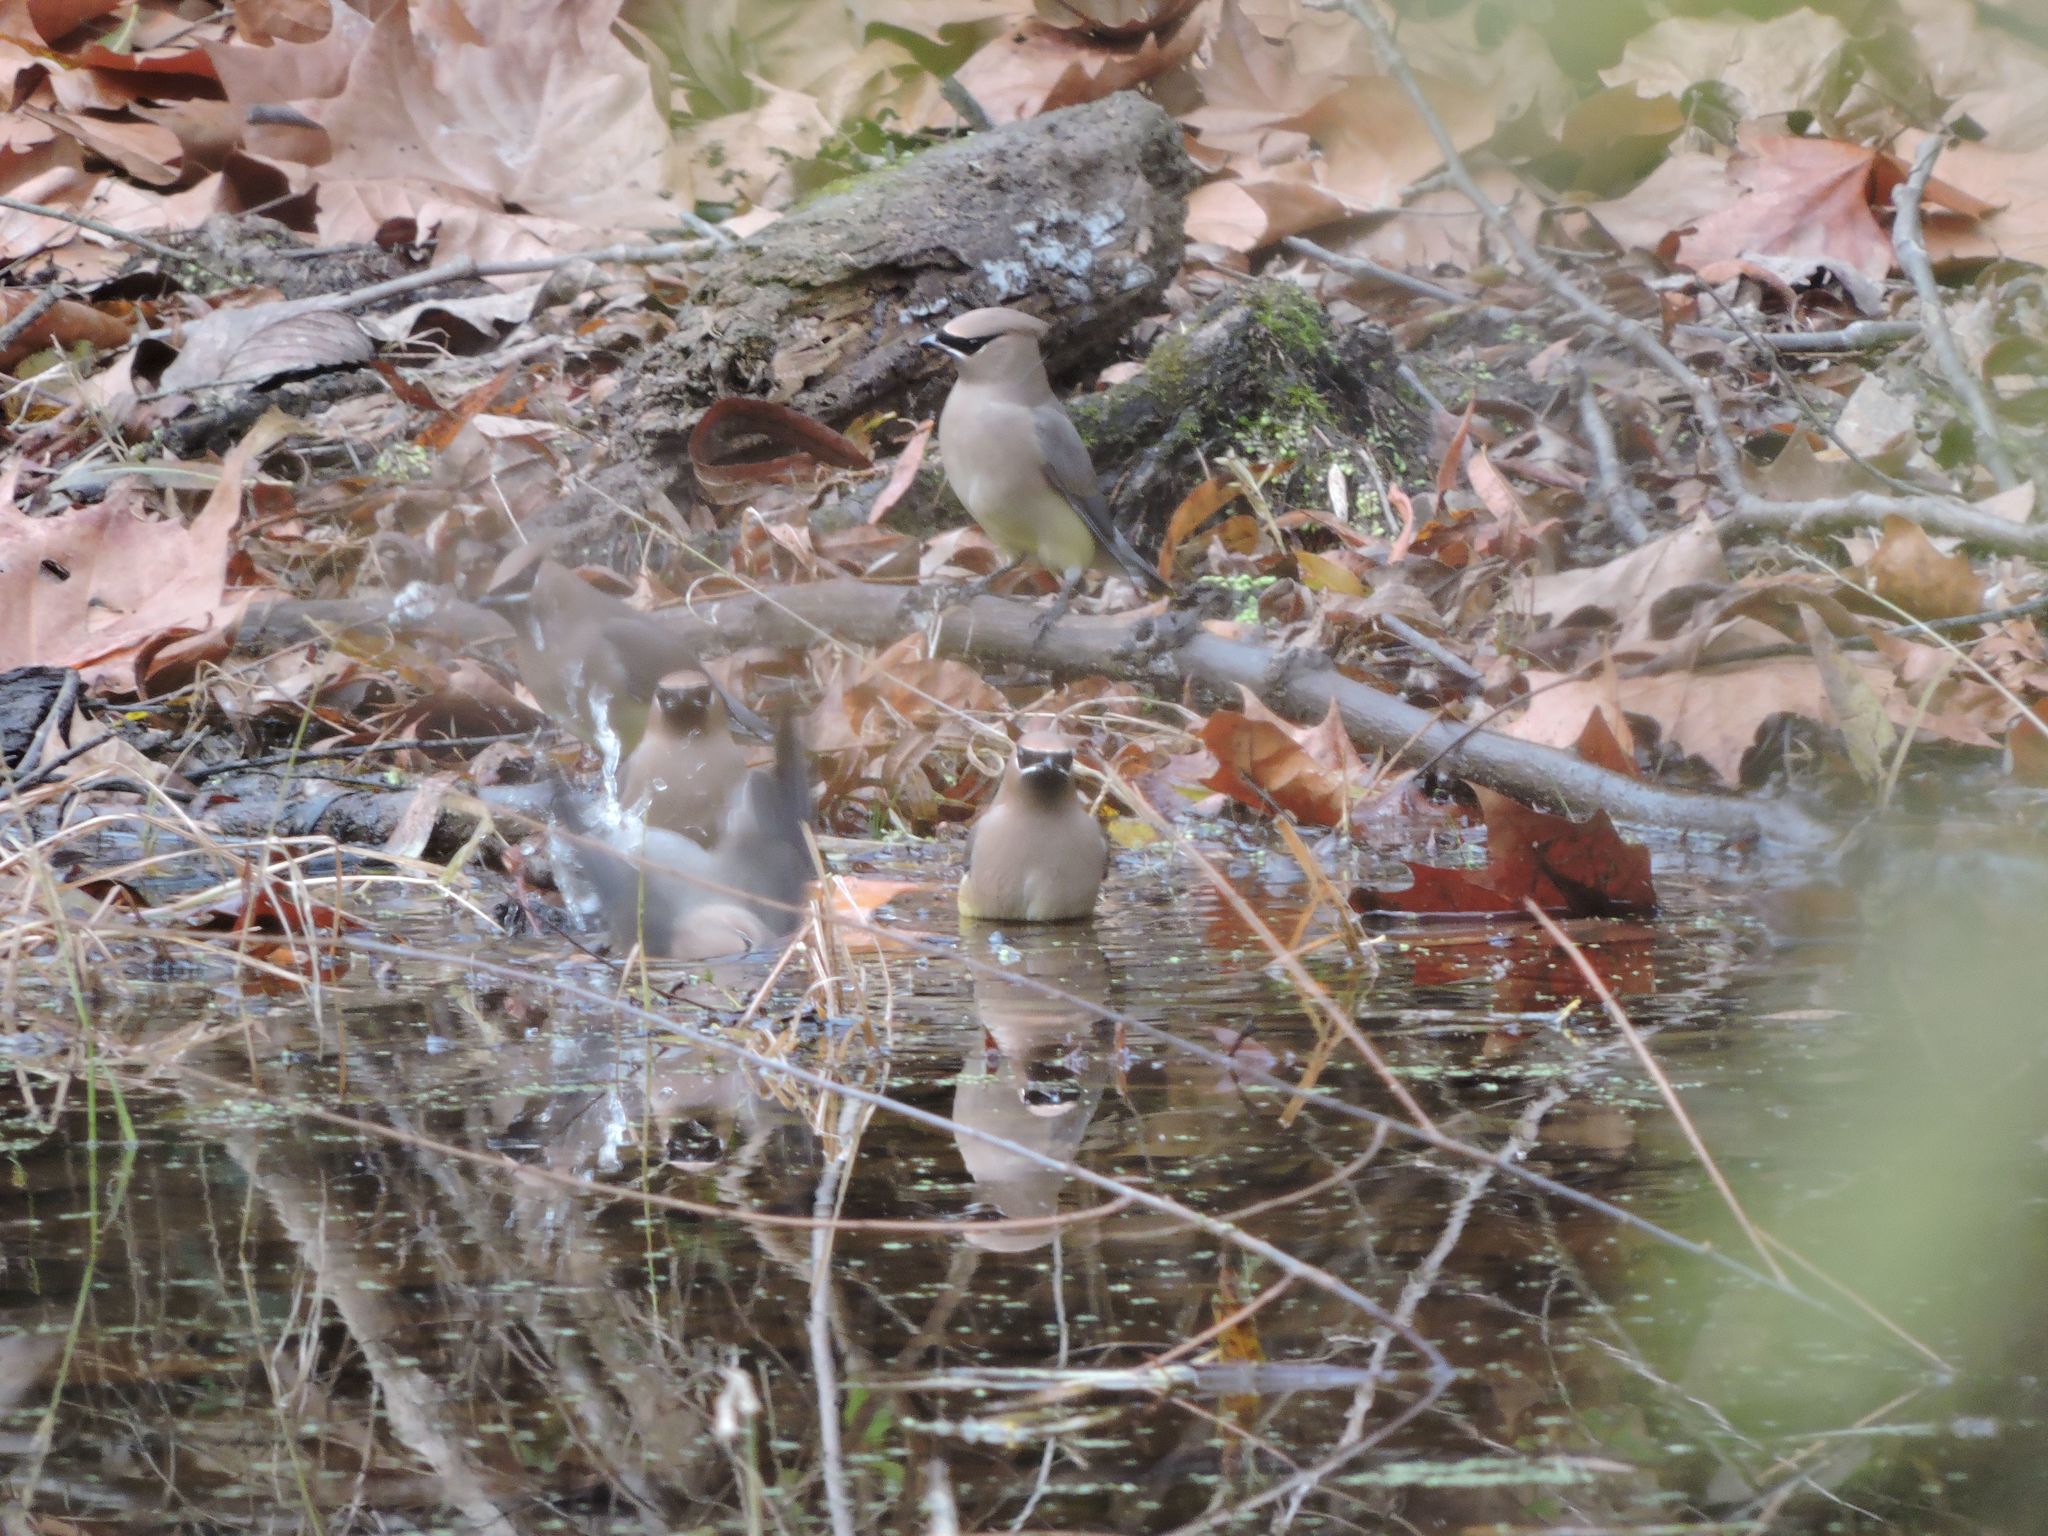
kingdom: Animalia
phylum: Chordata
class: Aves
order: Passeriformes
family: Bombycillidae
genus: Bombycilla
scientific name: Bombycilla cedrorum
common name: Cedar waxwing
